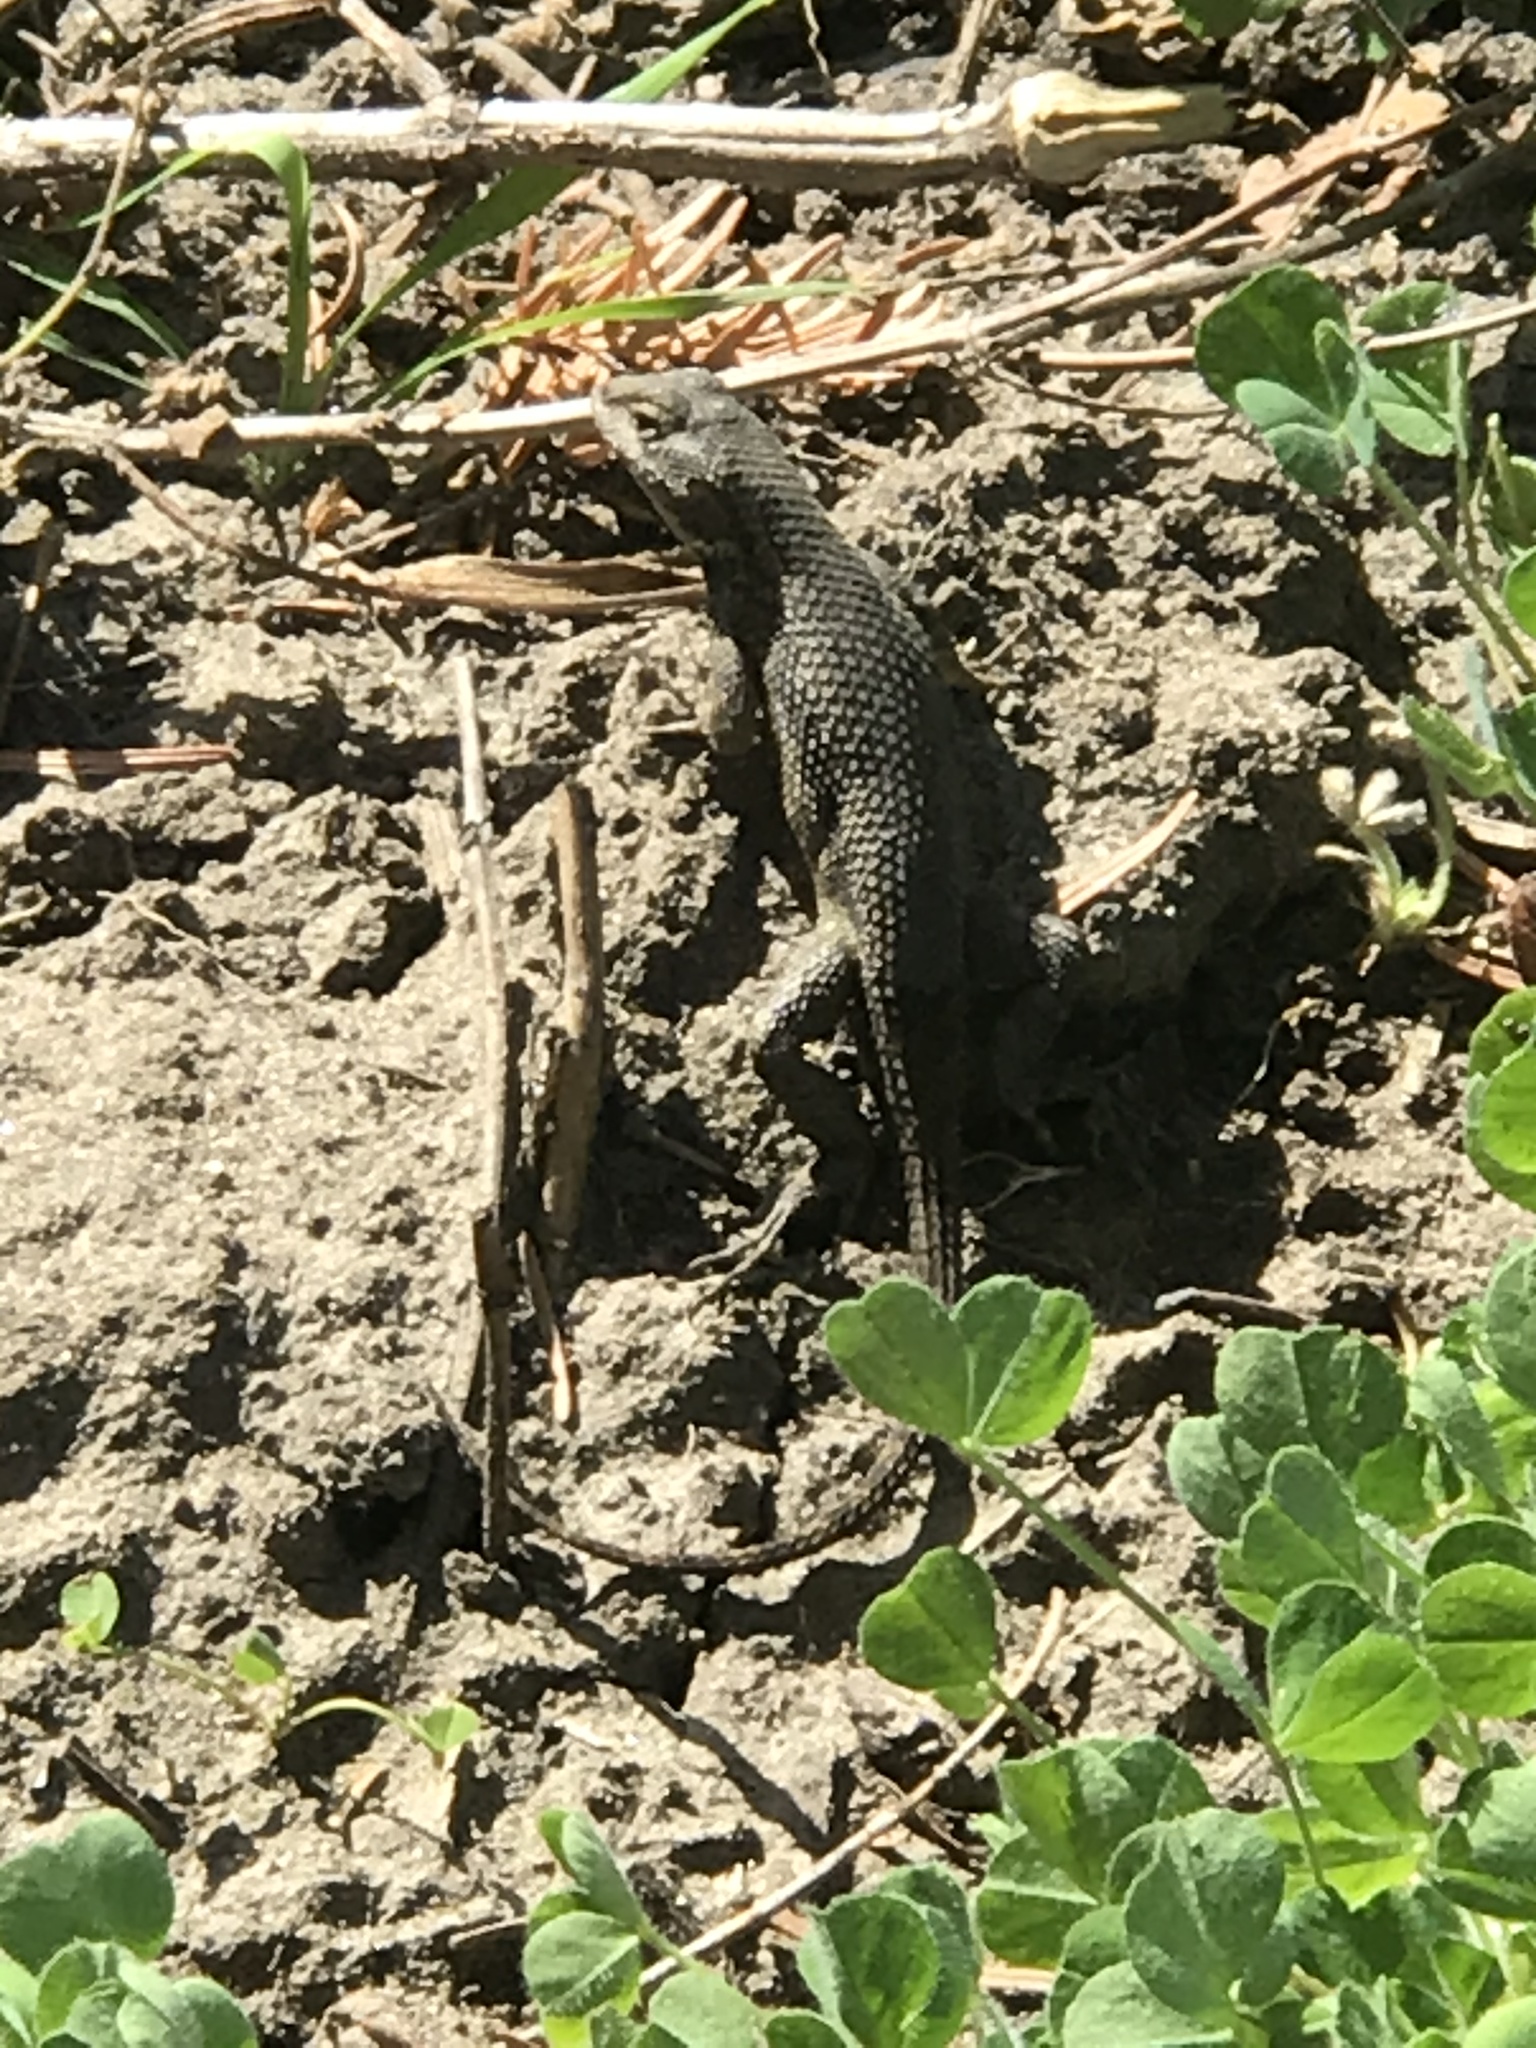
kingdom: Animalia
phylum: Chordata
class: Squamata
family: Phrynosomatidae
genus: Sceloporus
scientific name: Sceloporus occidentalis
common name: Western fence lizard
